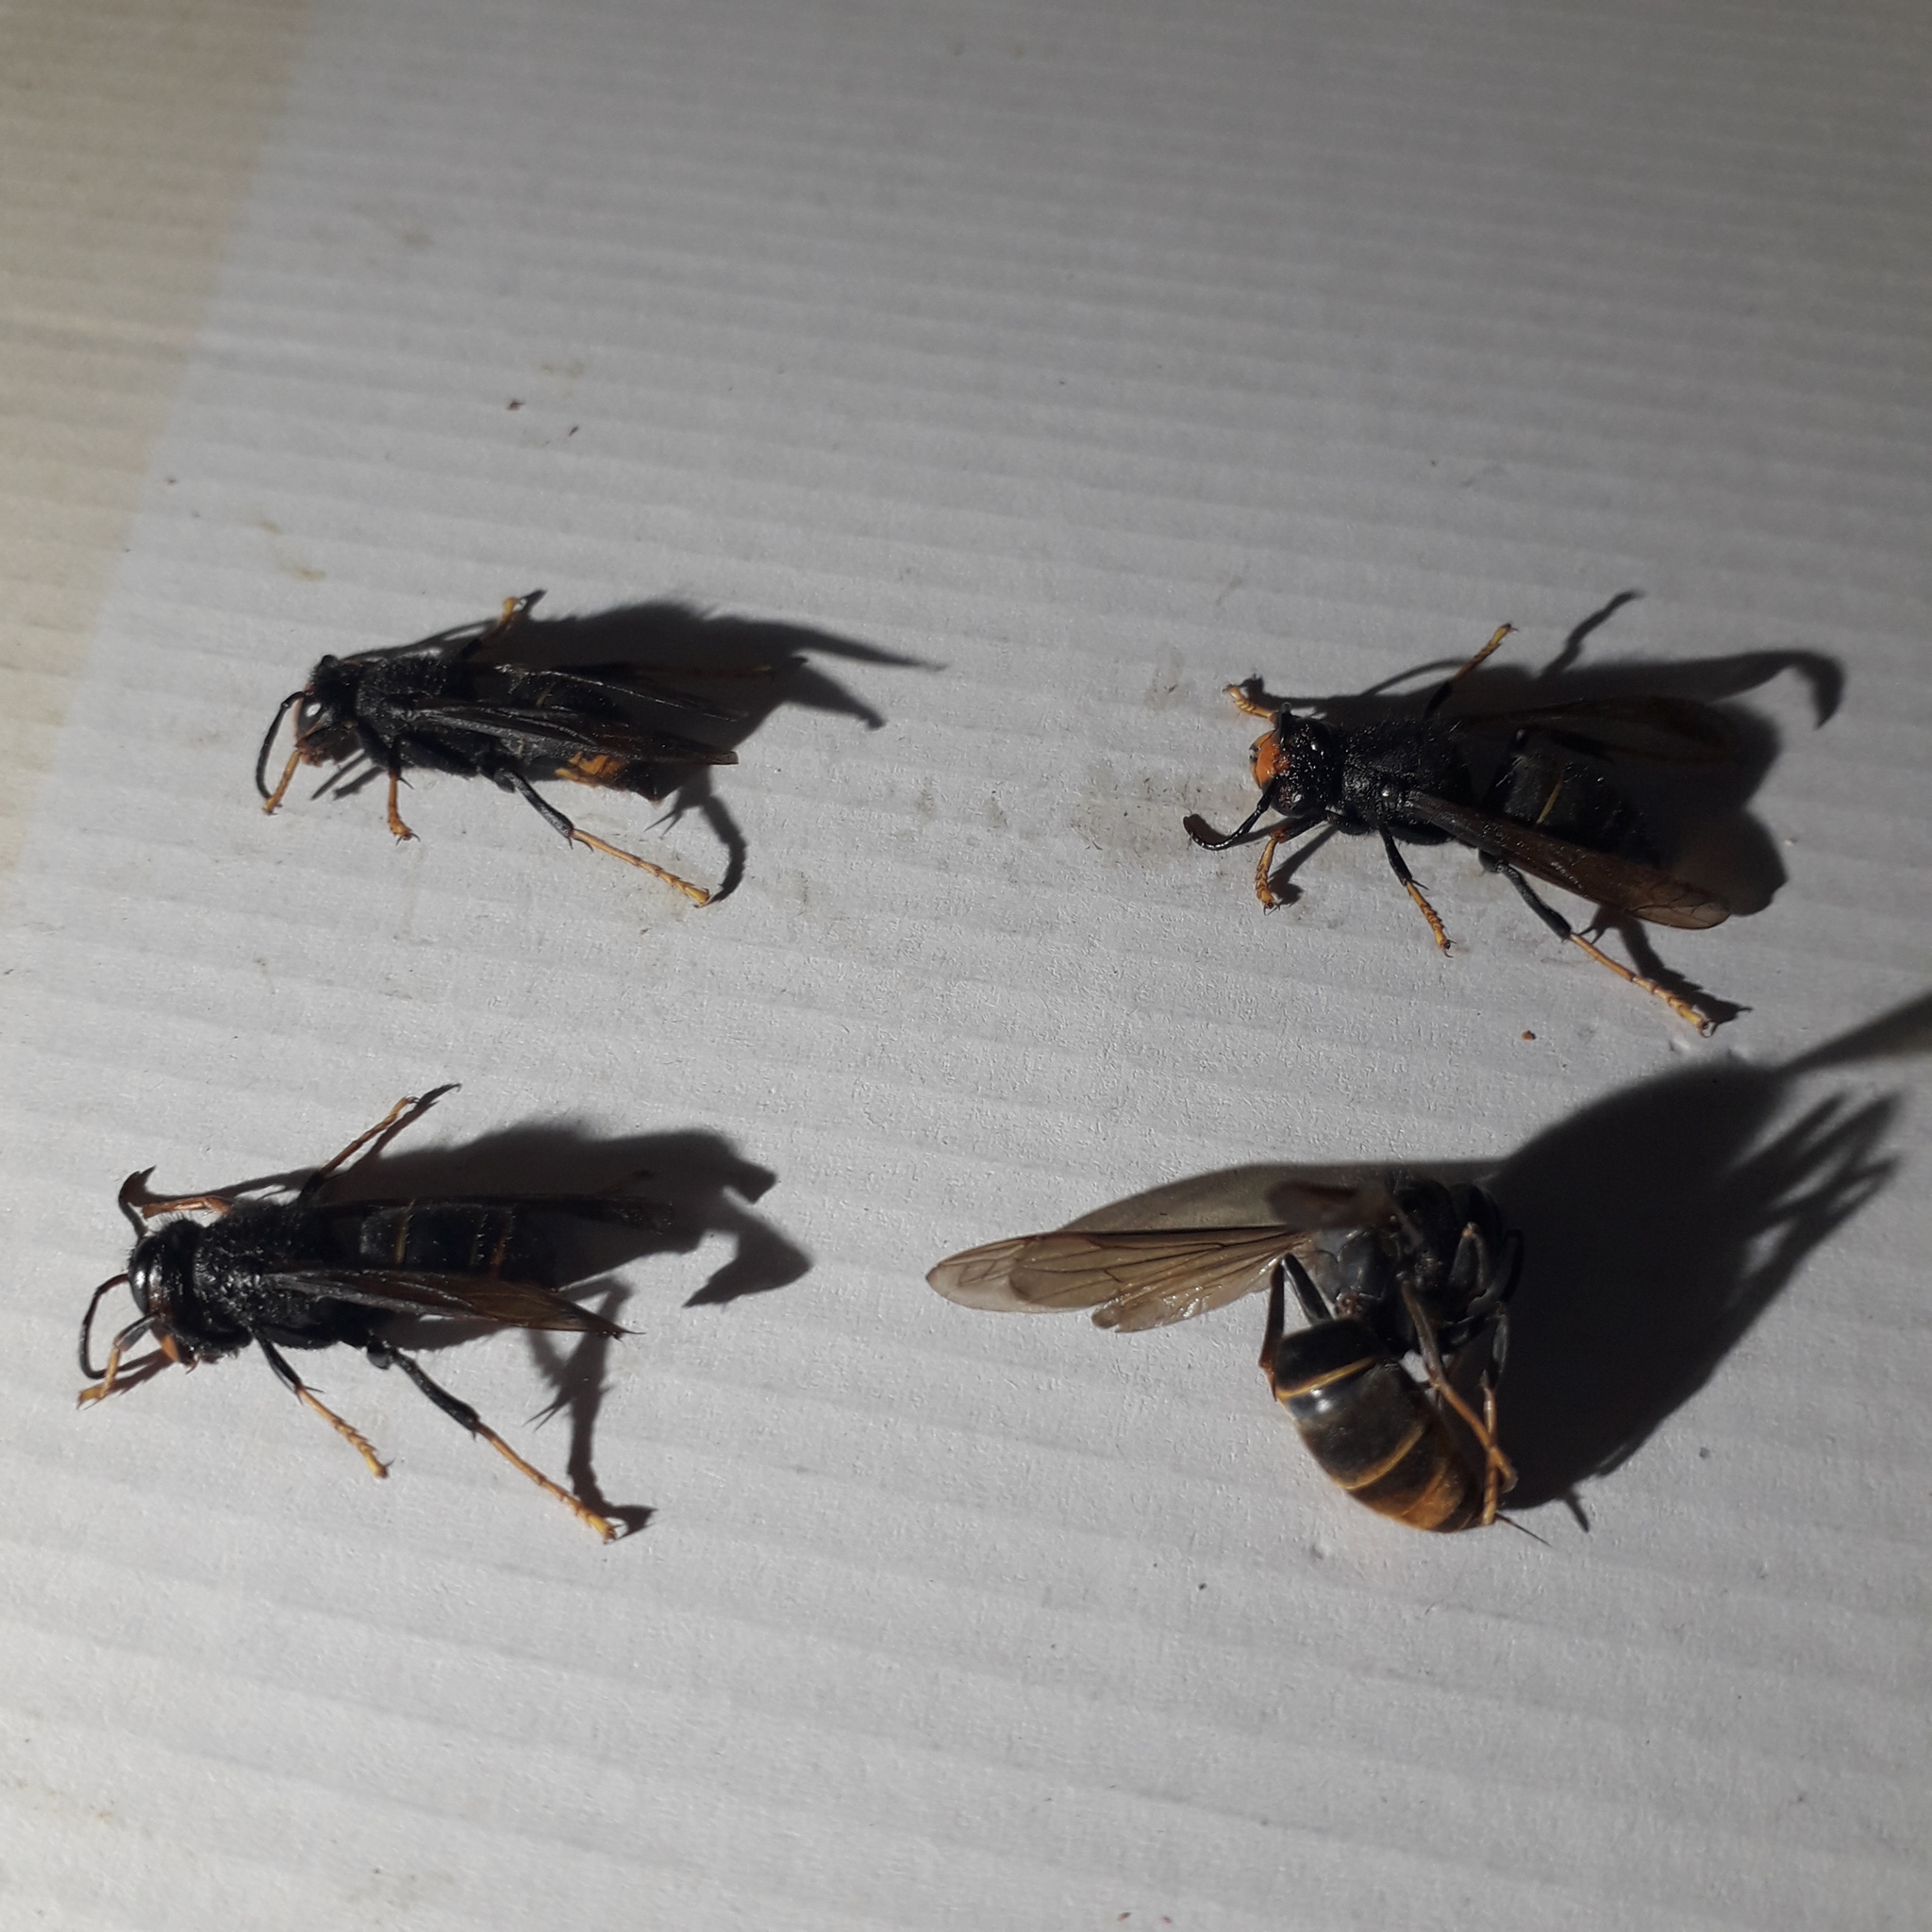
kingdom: Animalia
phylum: Arthropoda
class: Insecta
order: Hymenoptera
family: Vespidae
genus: Vespa
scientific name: Vespa velutina
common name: Asian hornet
